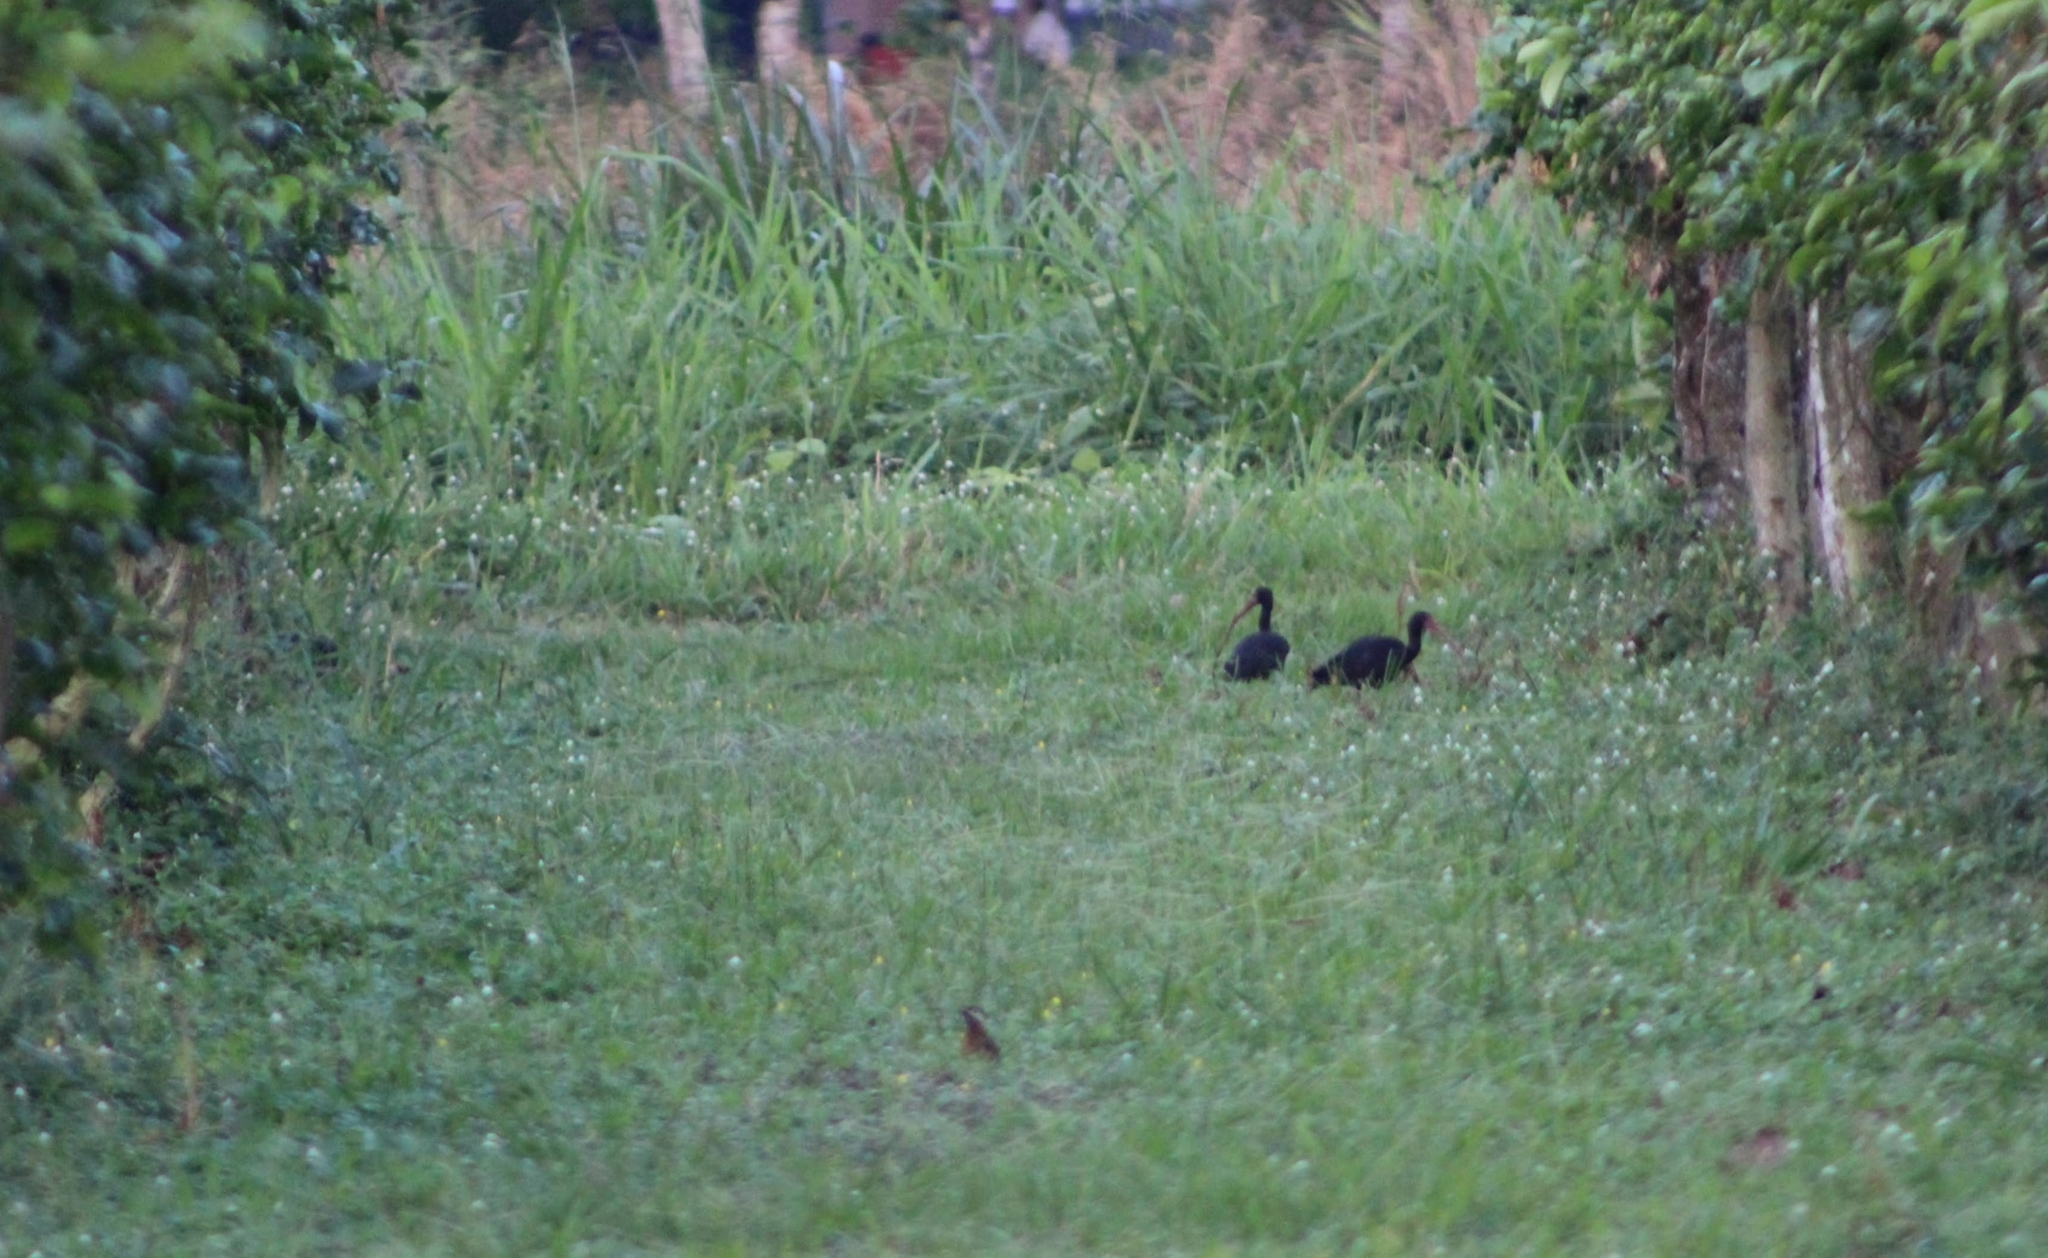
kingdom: Animalia
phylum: Chordata
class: Aves
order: Pelecaniformes
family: Threskiornithidae
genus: Phimosus
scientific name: Phimosus infuscatus
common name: Bare-faced ibis
